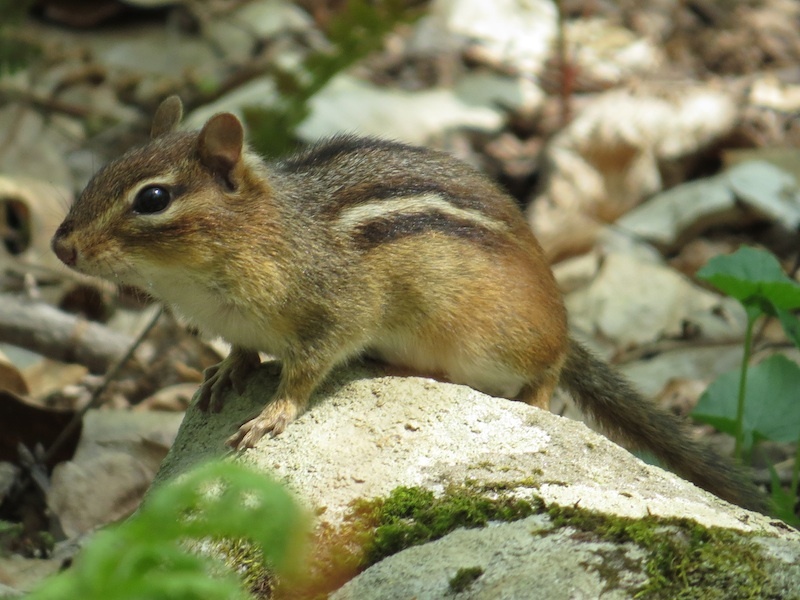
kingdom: Animalia
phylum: Chordata
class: Mammalia
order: Rodentia
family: Sciuridae
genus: Tamias
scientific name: Tamias striatus
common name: Eastern chipmunk
